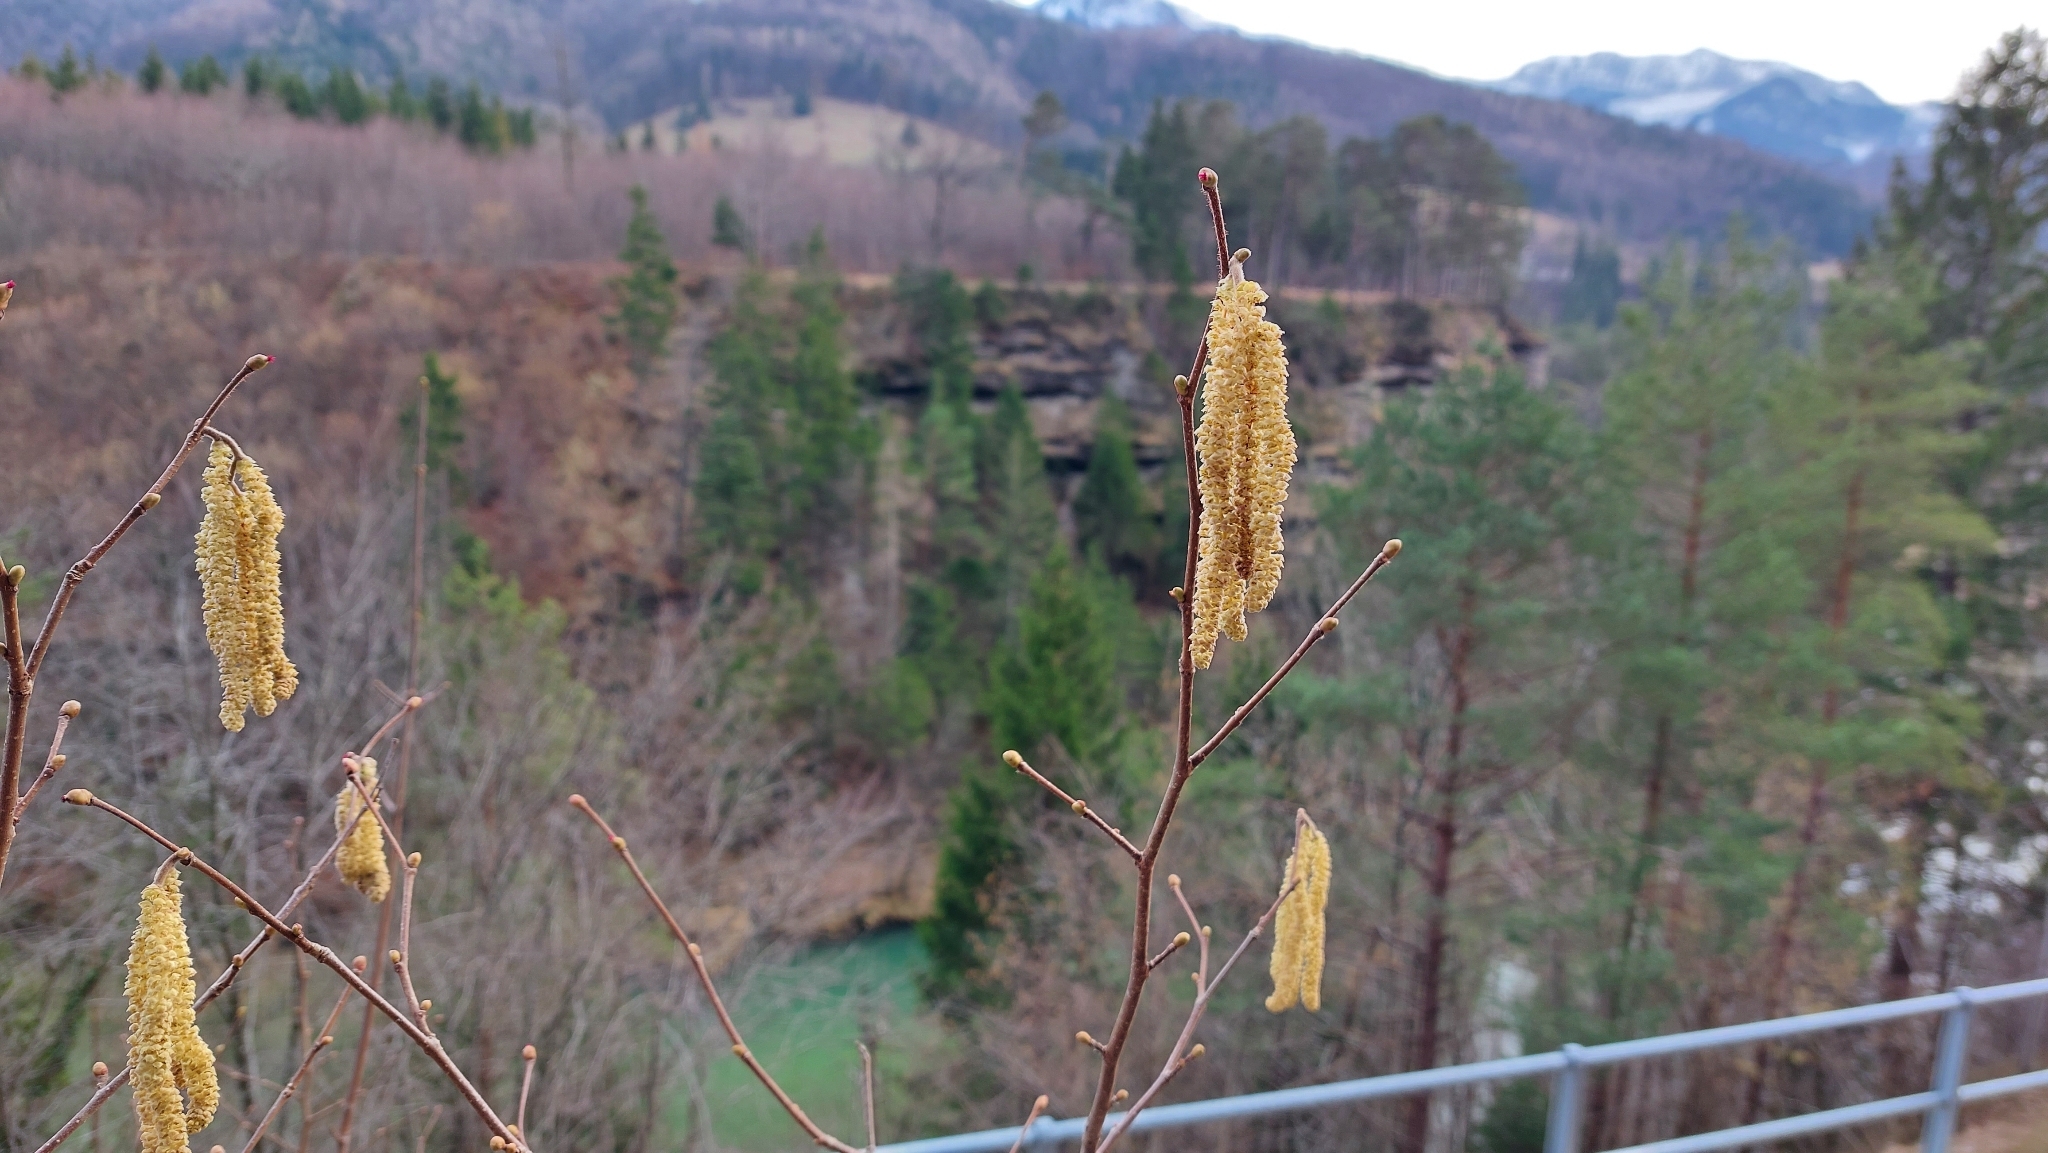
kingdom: Plantae
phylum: Tracheophyta
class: Magnoliopsida
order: Fagales
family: Betulaceae
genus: Corylus
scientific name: Corylus avellana
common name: European hazel
